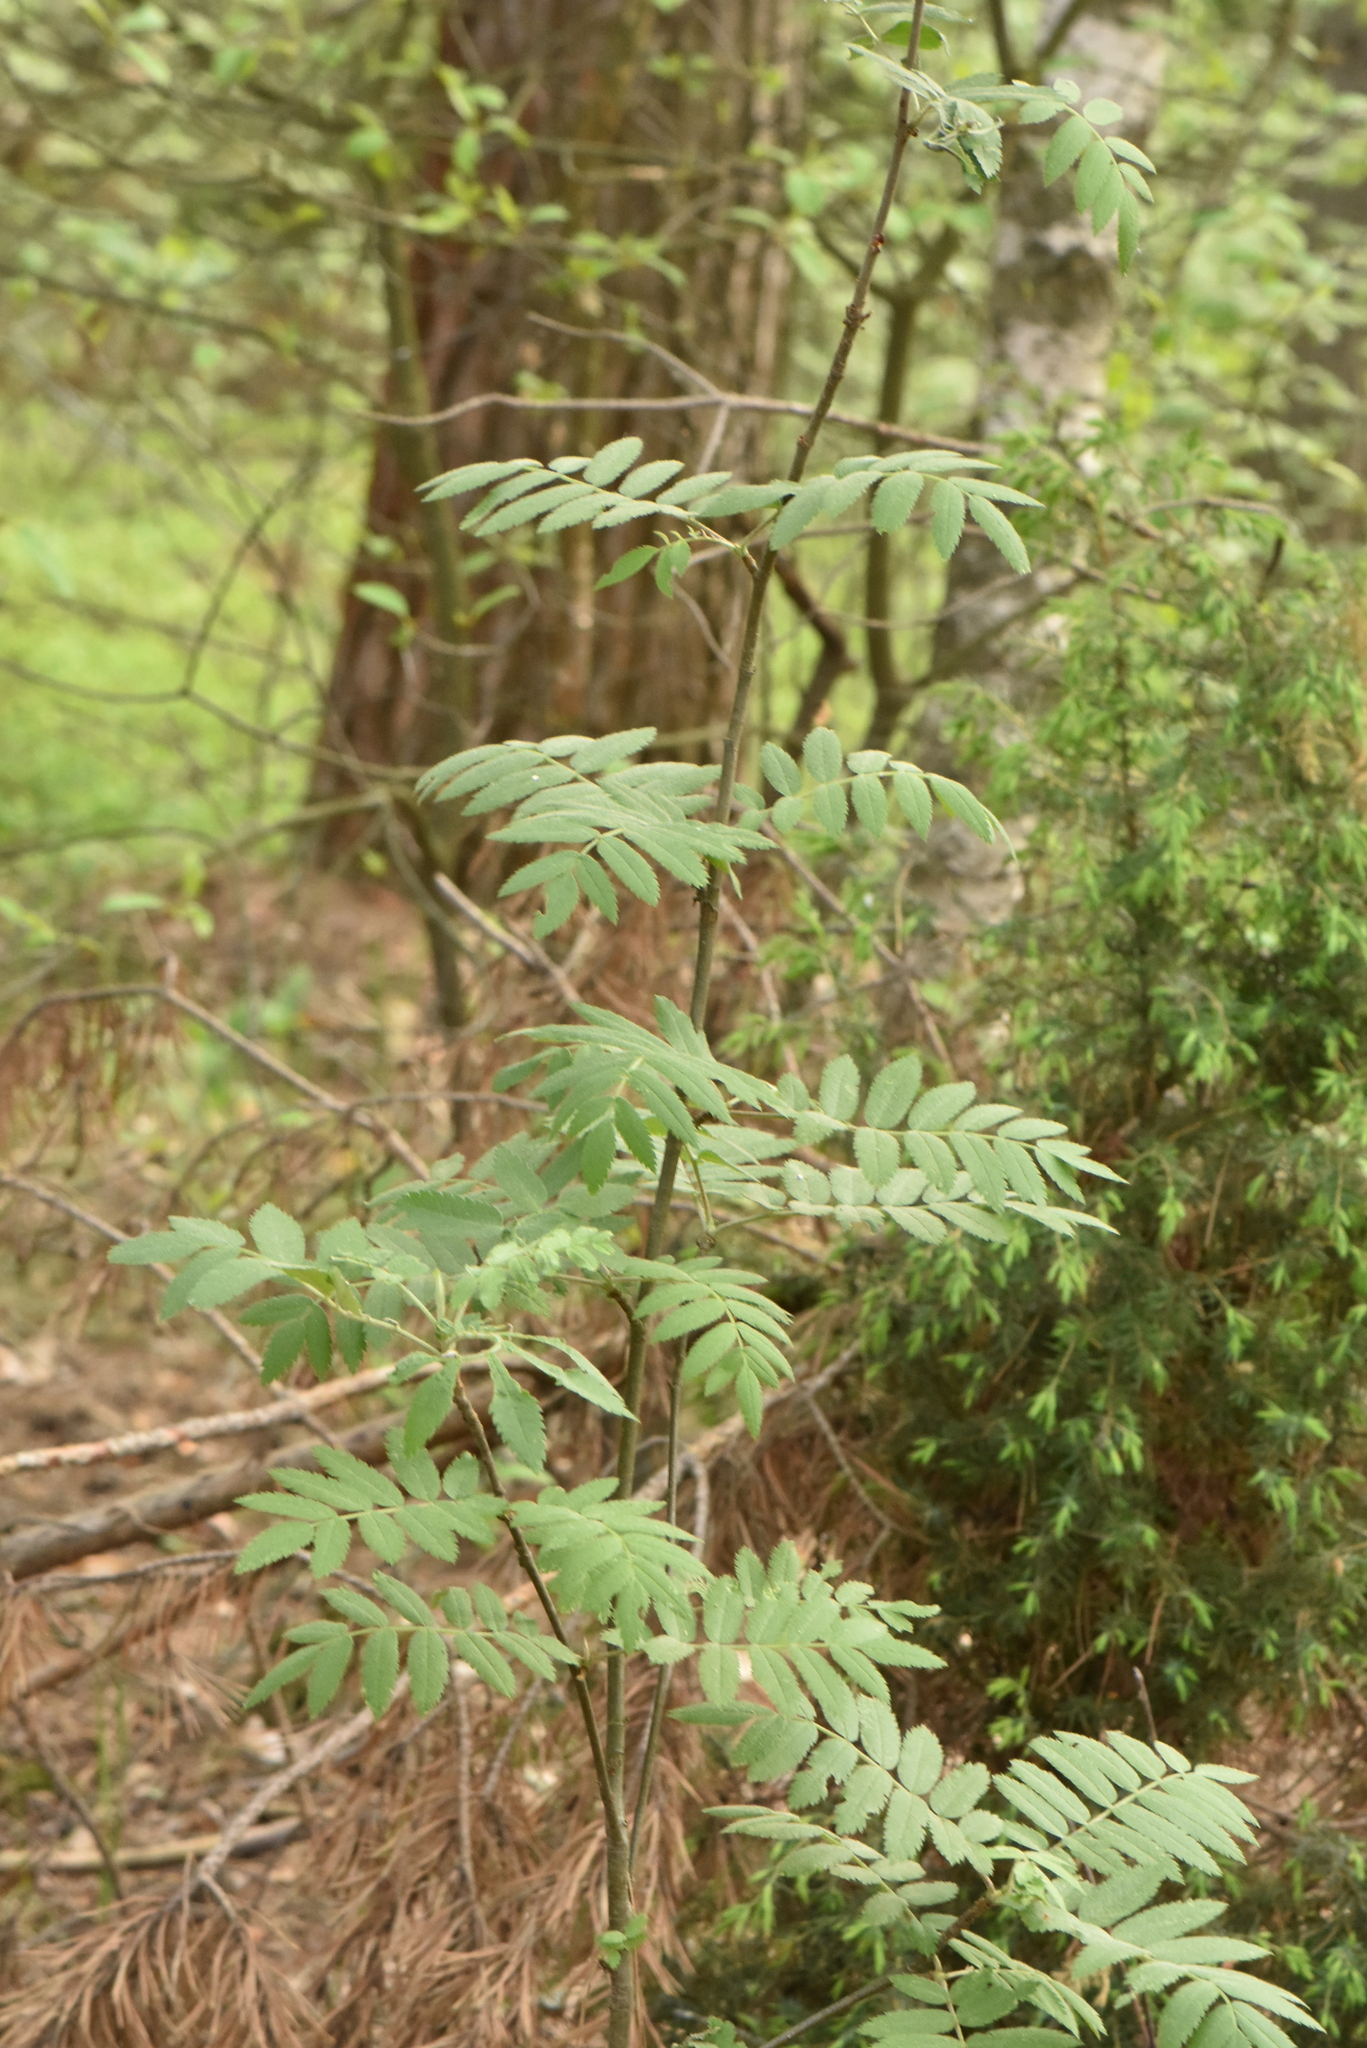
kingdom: Plantae
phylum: Tracheophyta
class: Magnoliopsida
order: Rosales
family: Rosaceae
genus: Sorbus
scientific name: Sorbus aucuparia
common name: Rowan
